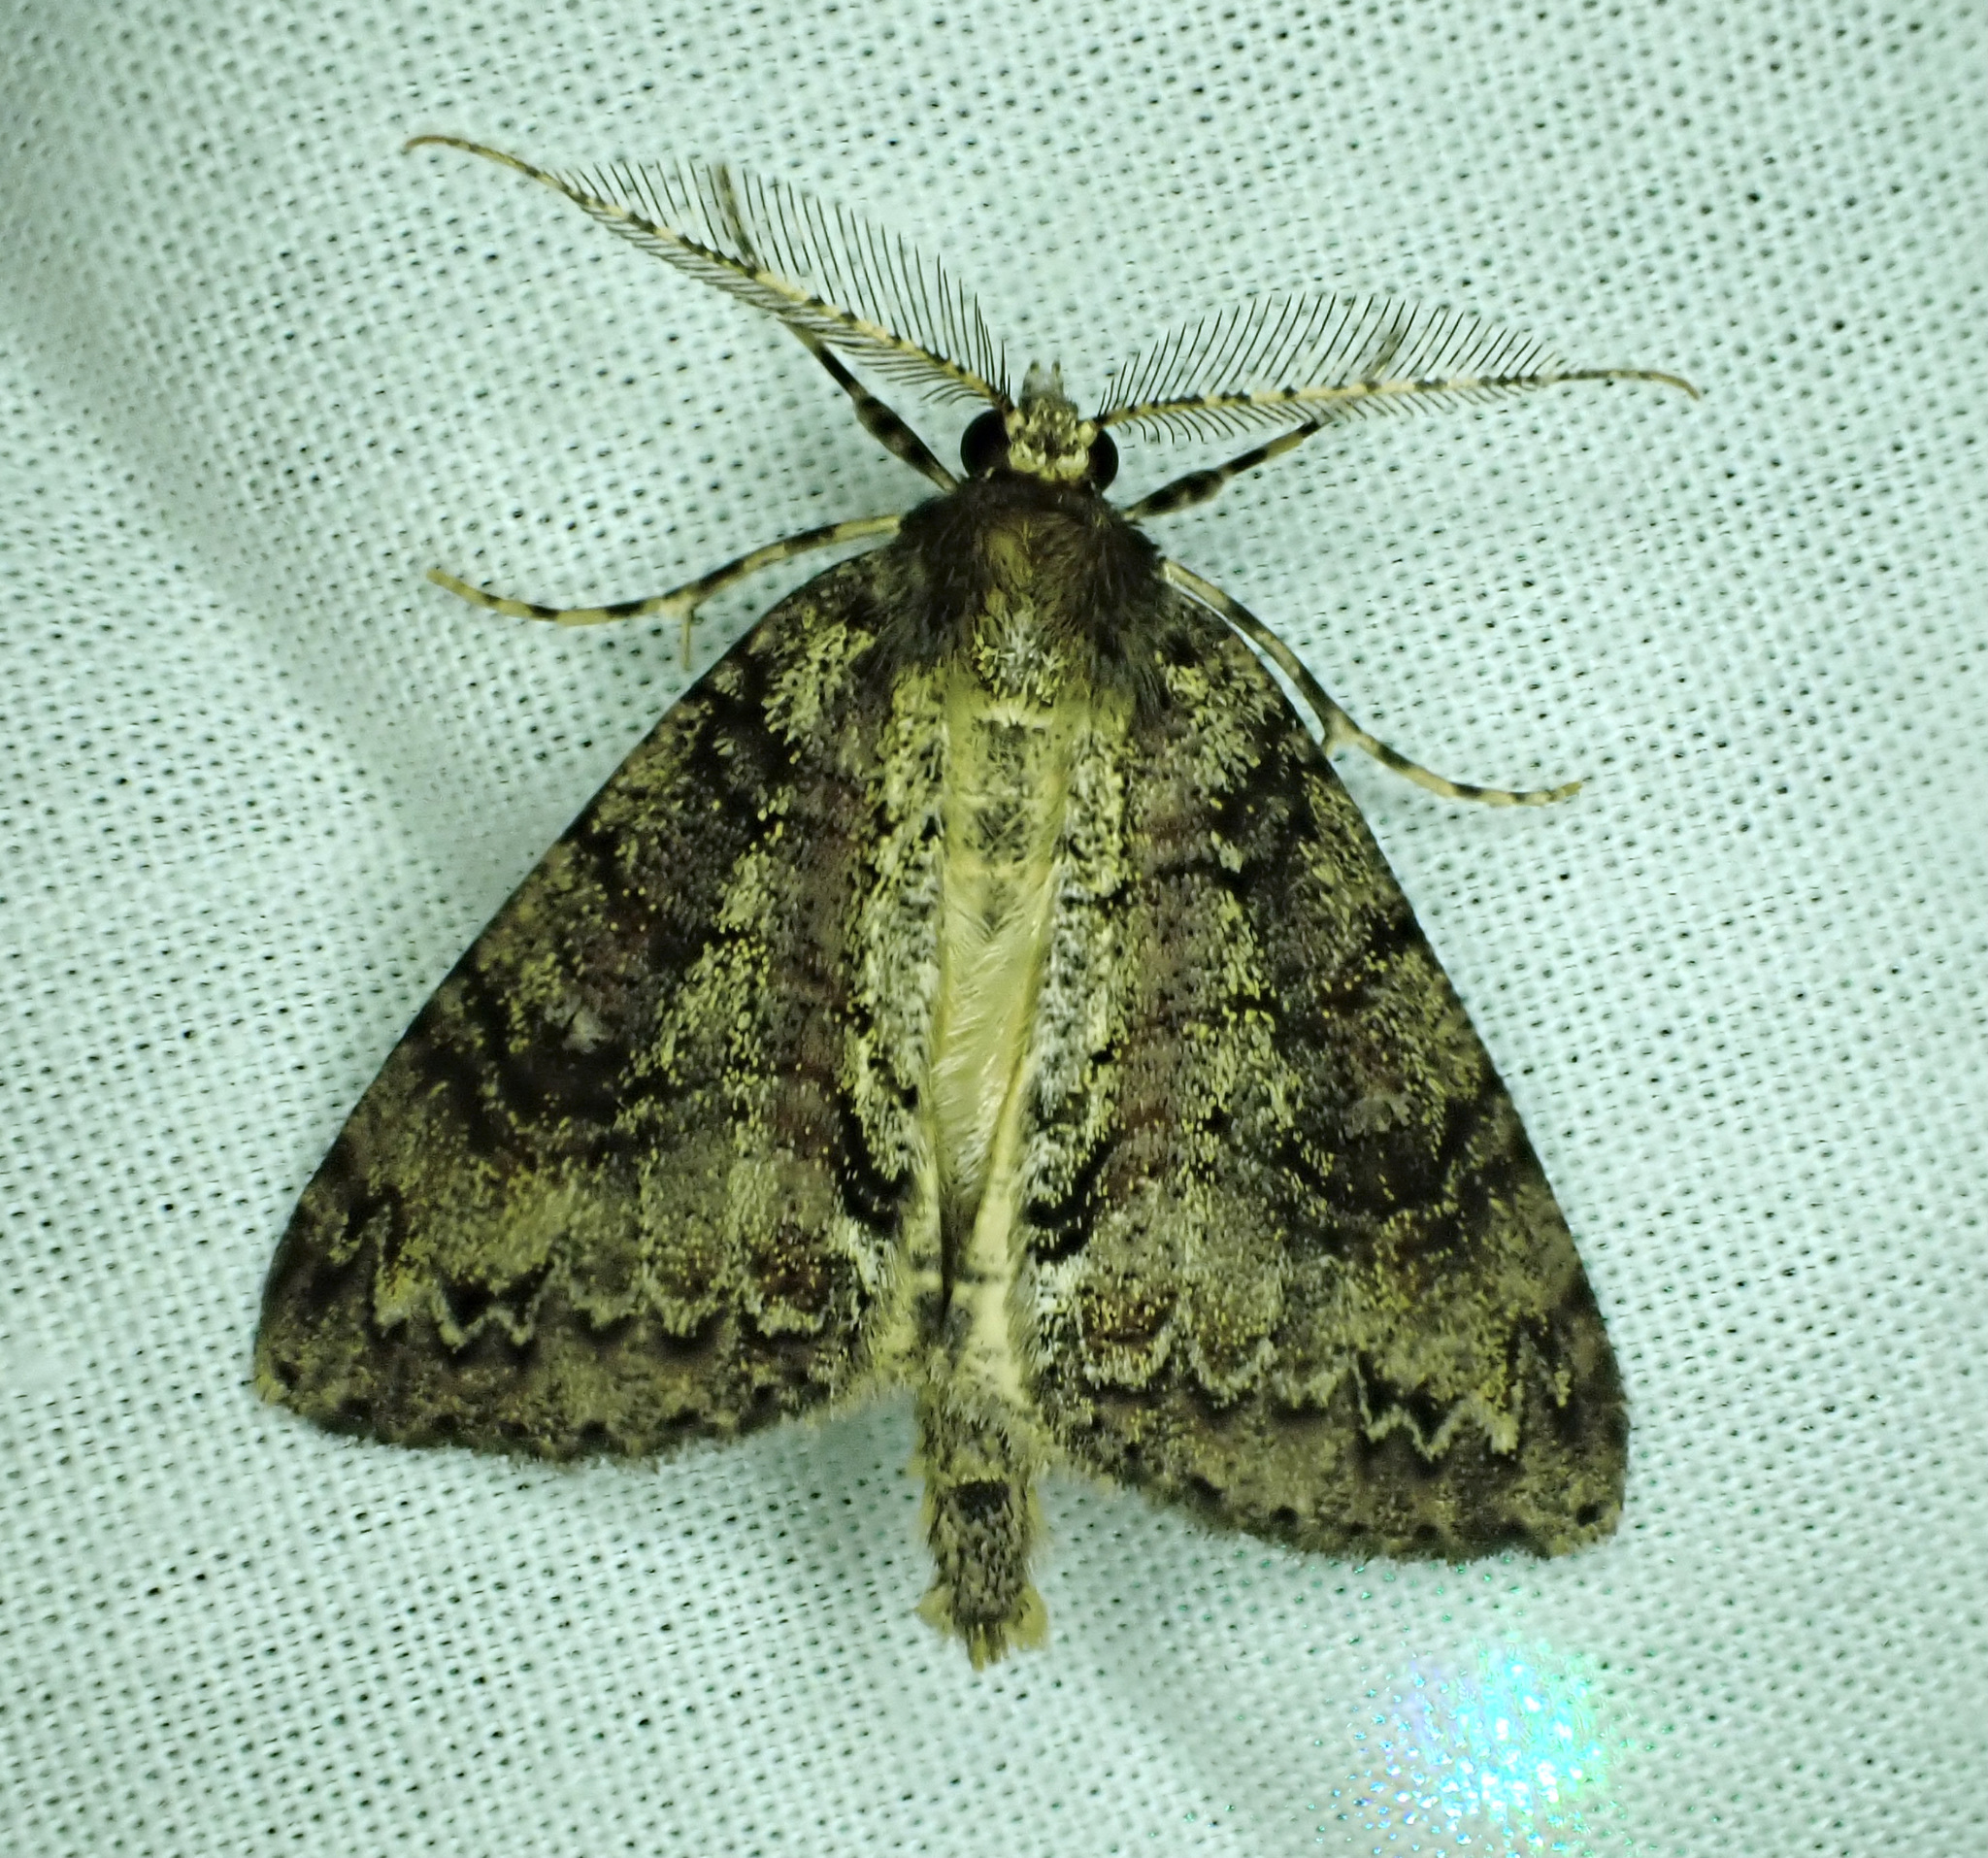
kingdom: Animalia
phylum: Arthropoda
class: Insecta
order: Lepidoptera
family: Geometridae
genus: Pseudocoremia
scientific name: Pseudocoremia suavis
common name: Common forest looper
